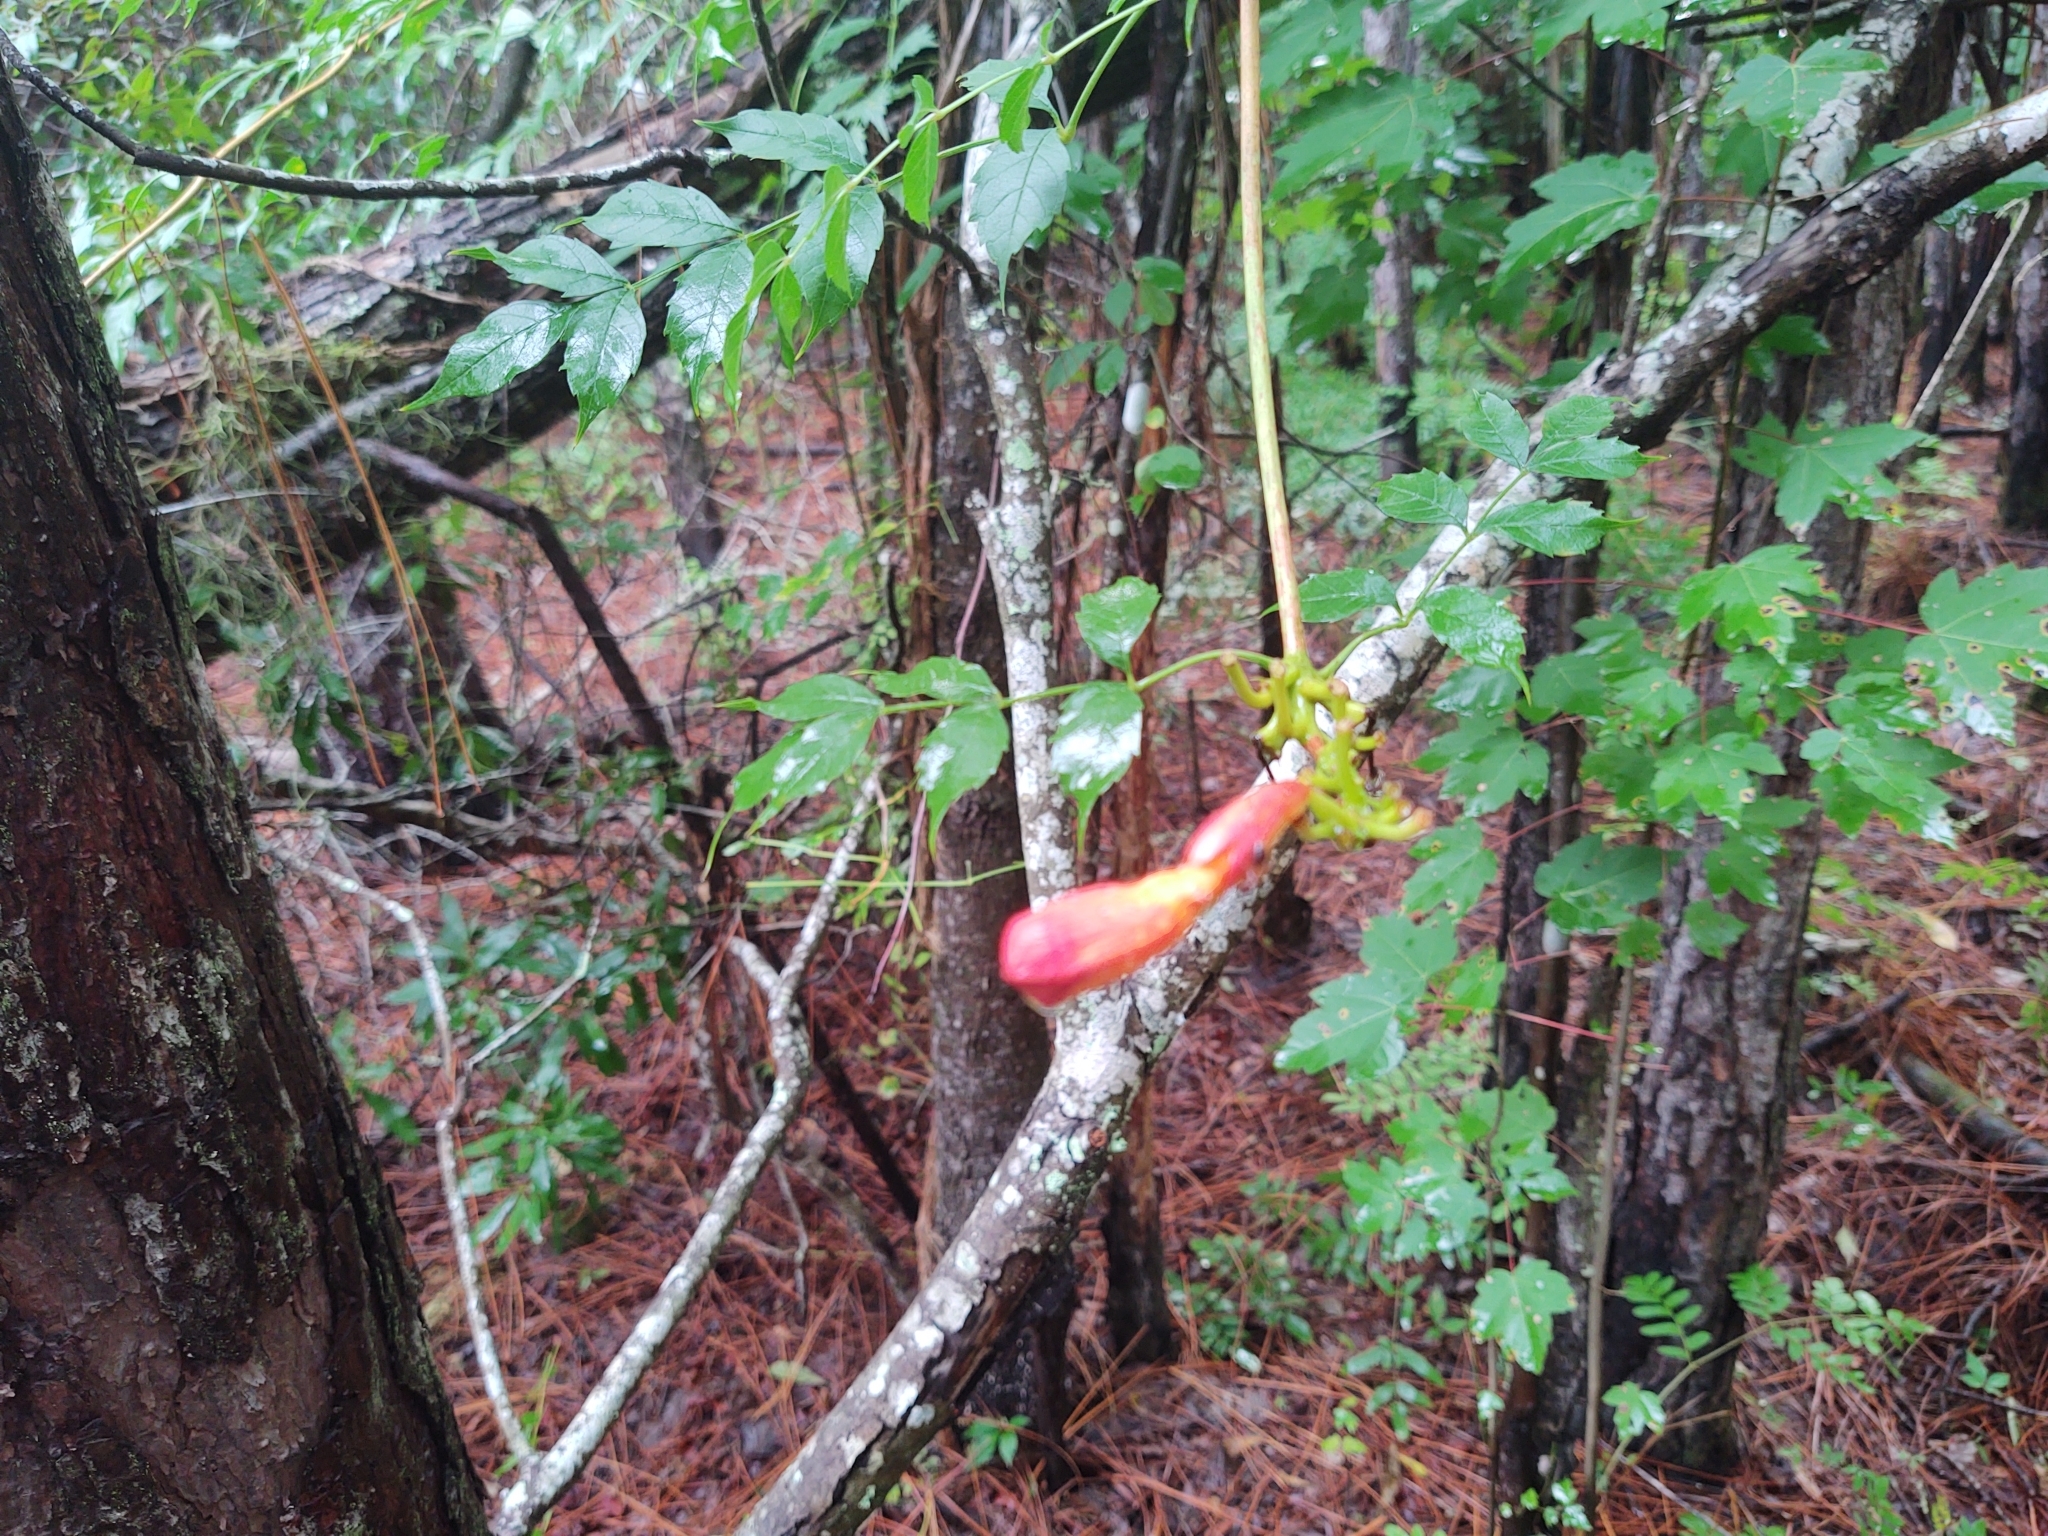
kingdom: Plantae
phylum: Tracheophyta
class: Magnoliopsida
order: Lamiales
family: Bignoniaceae
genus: Campsis
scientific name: Campsis radicans
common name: Trumpet-creeper
